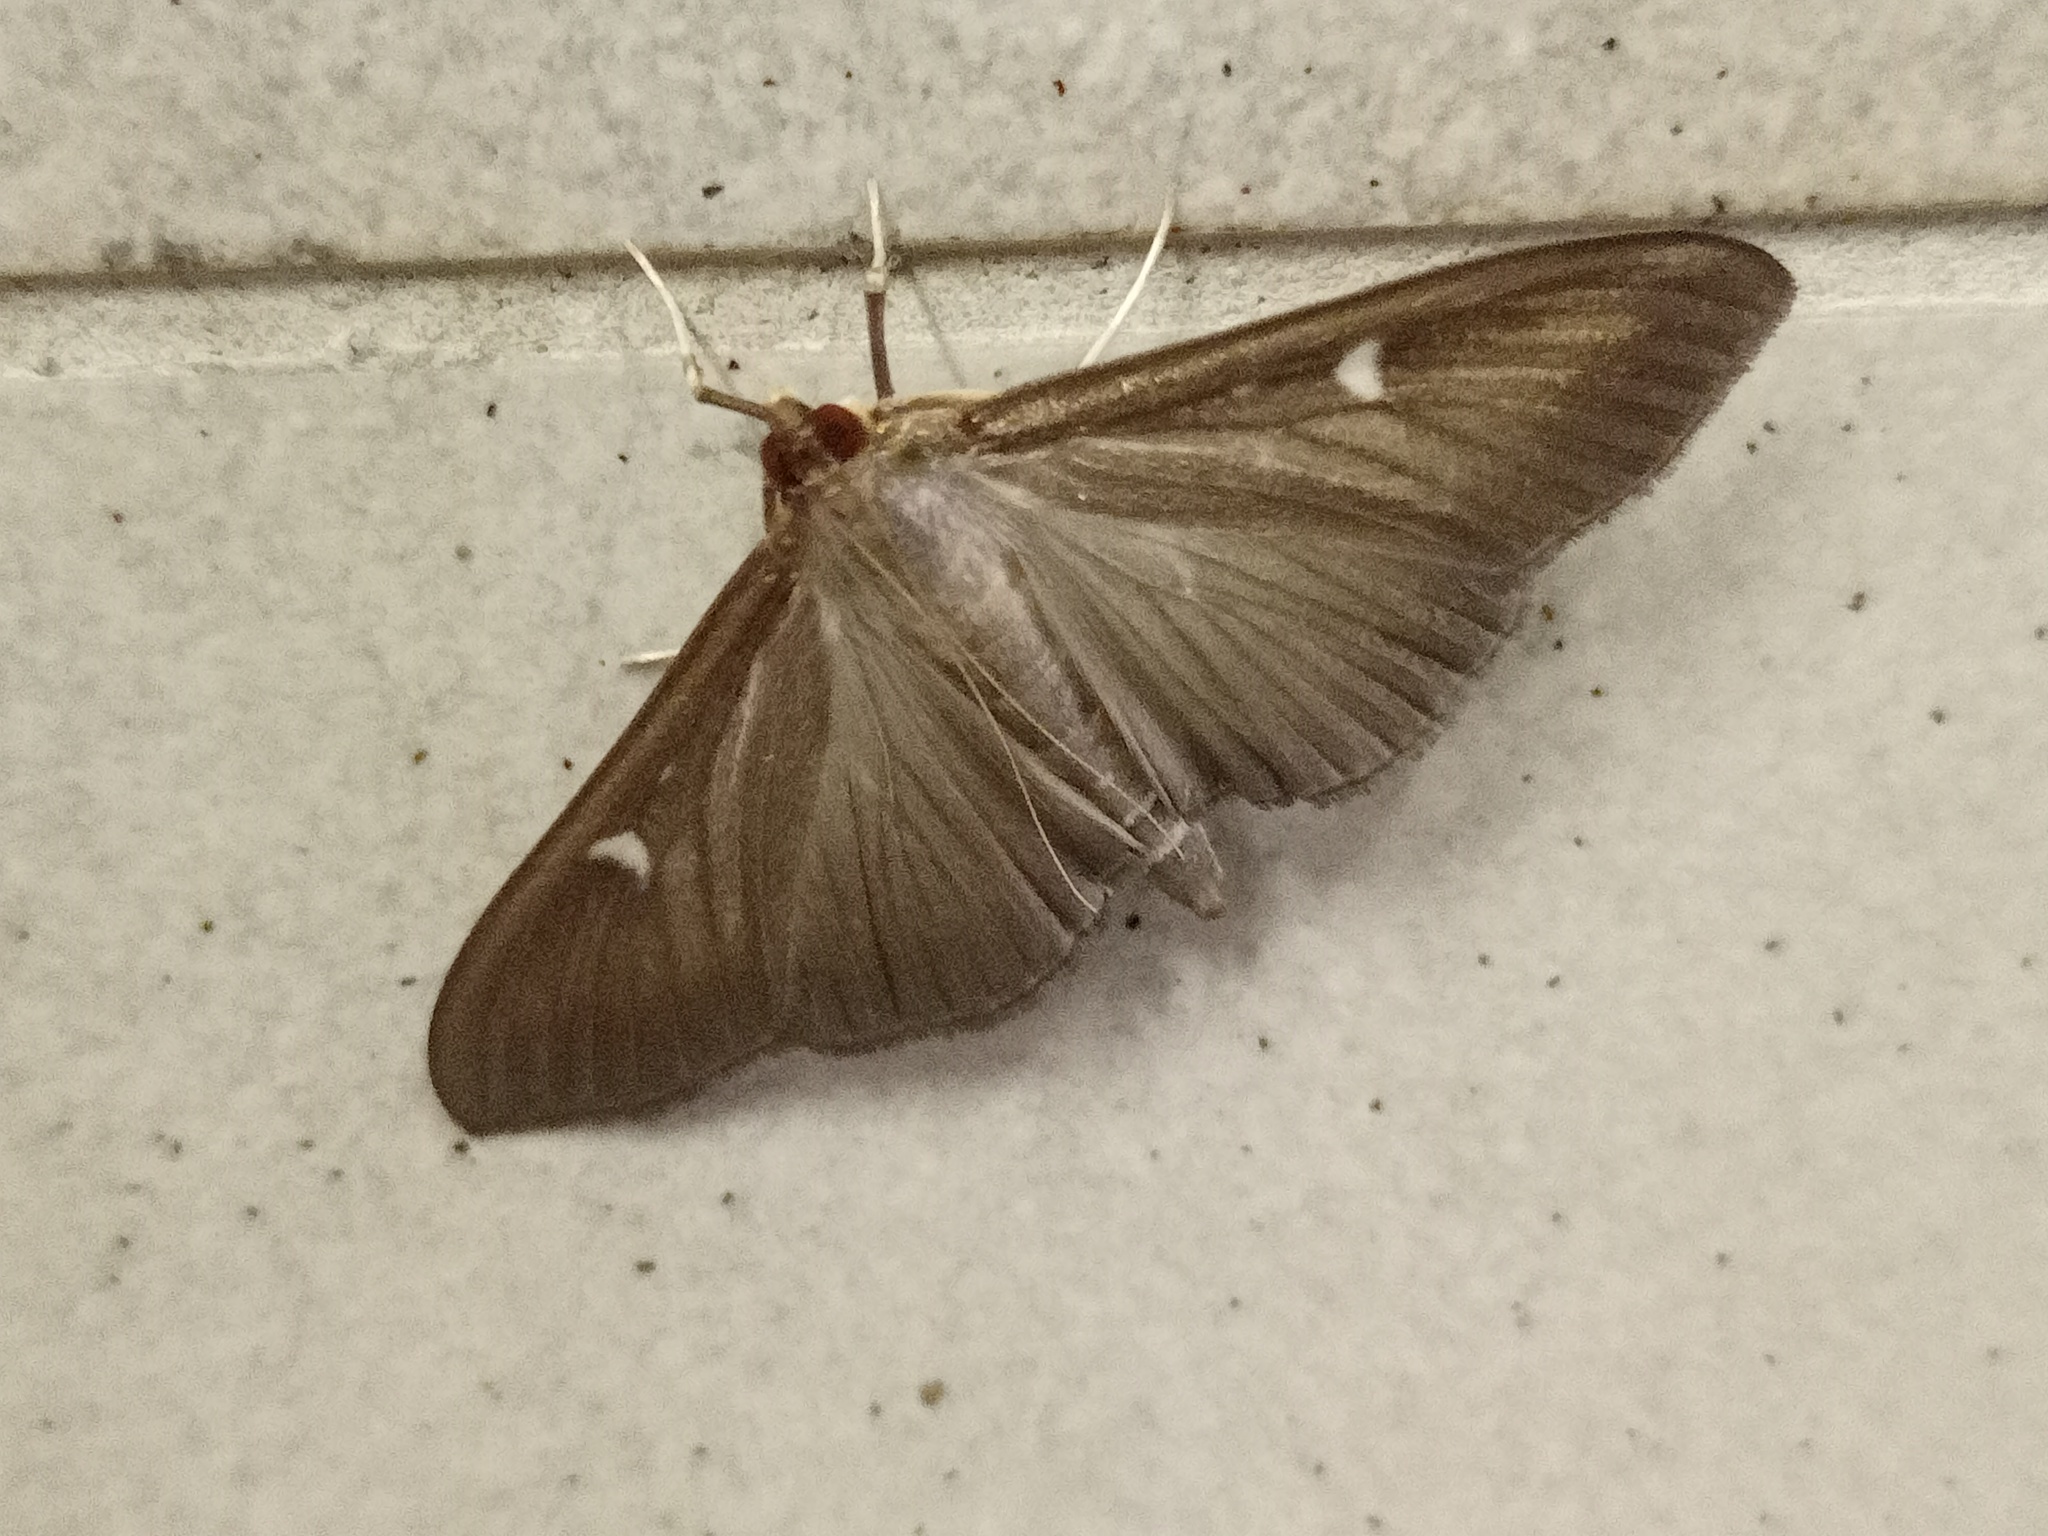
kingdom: Animalia
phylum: Arthropoda
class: Insecta
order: Lepidoptera
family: Crambidae
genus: Cydalima
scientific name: Cydalima perspectalis
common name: Box tree moth
